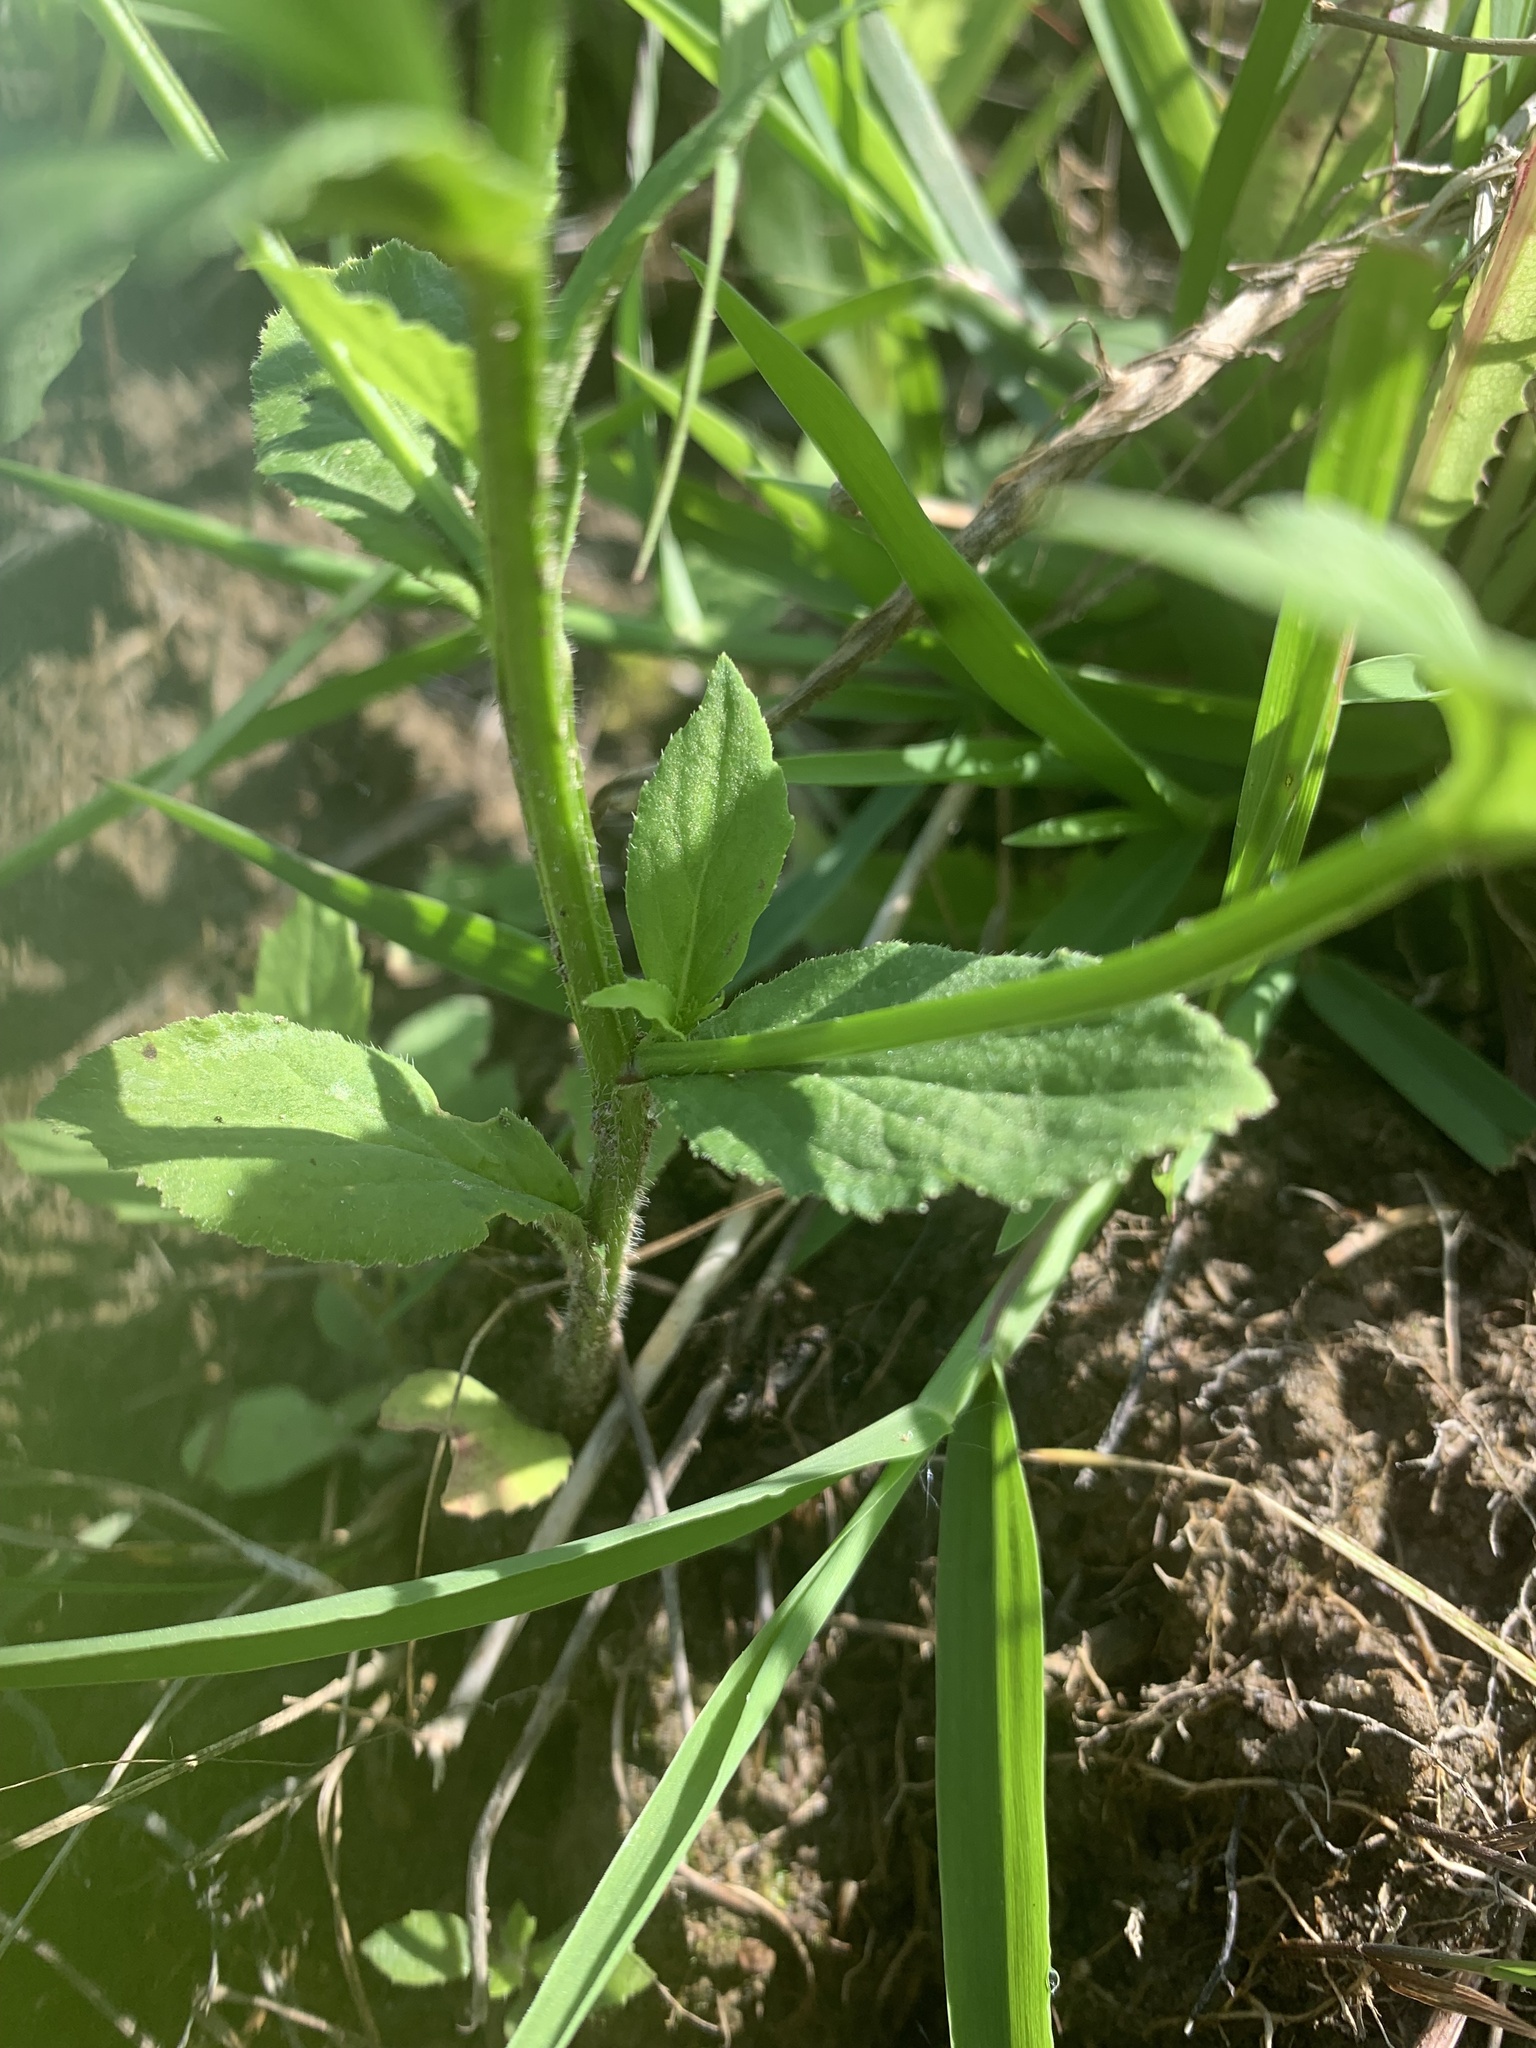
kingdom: Plantae
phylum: Tracheophyta
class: Magnoliopsida
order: Asterales
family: Campanulaceae
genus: Lobelia
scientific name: Lobelia inflata
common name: Indian tobacco
